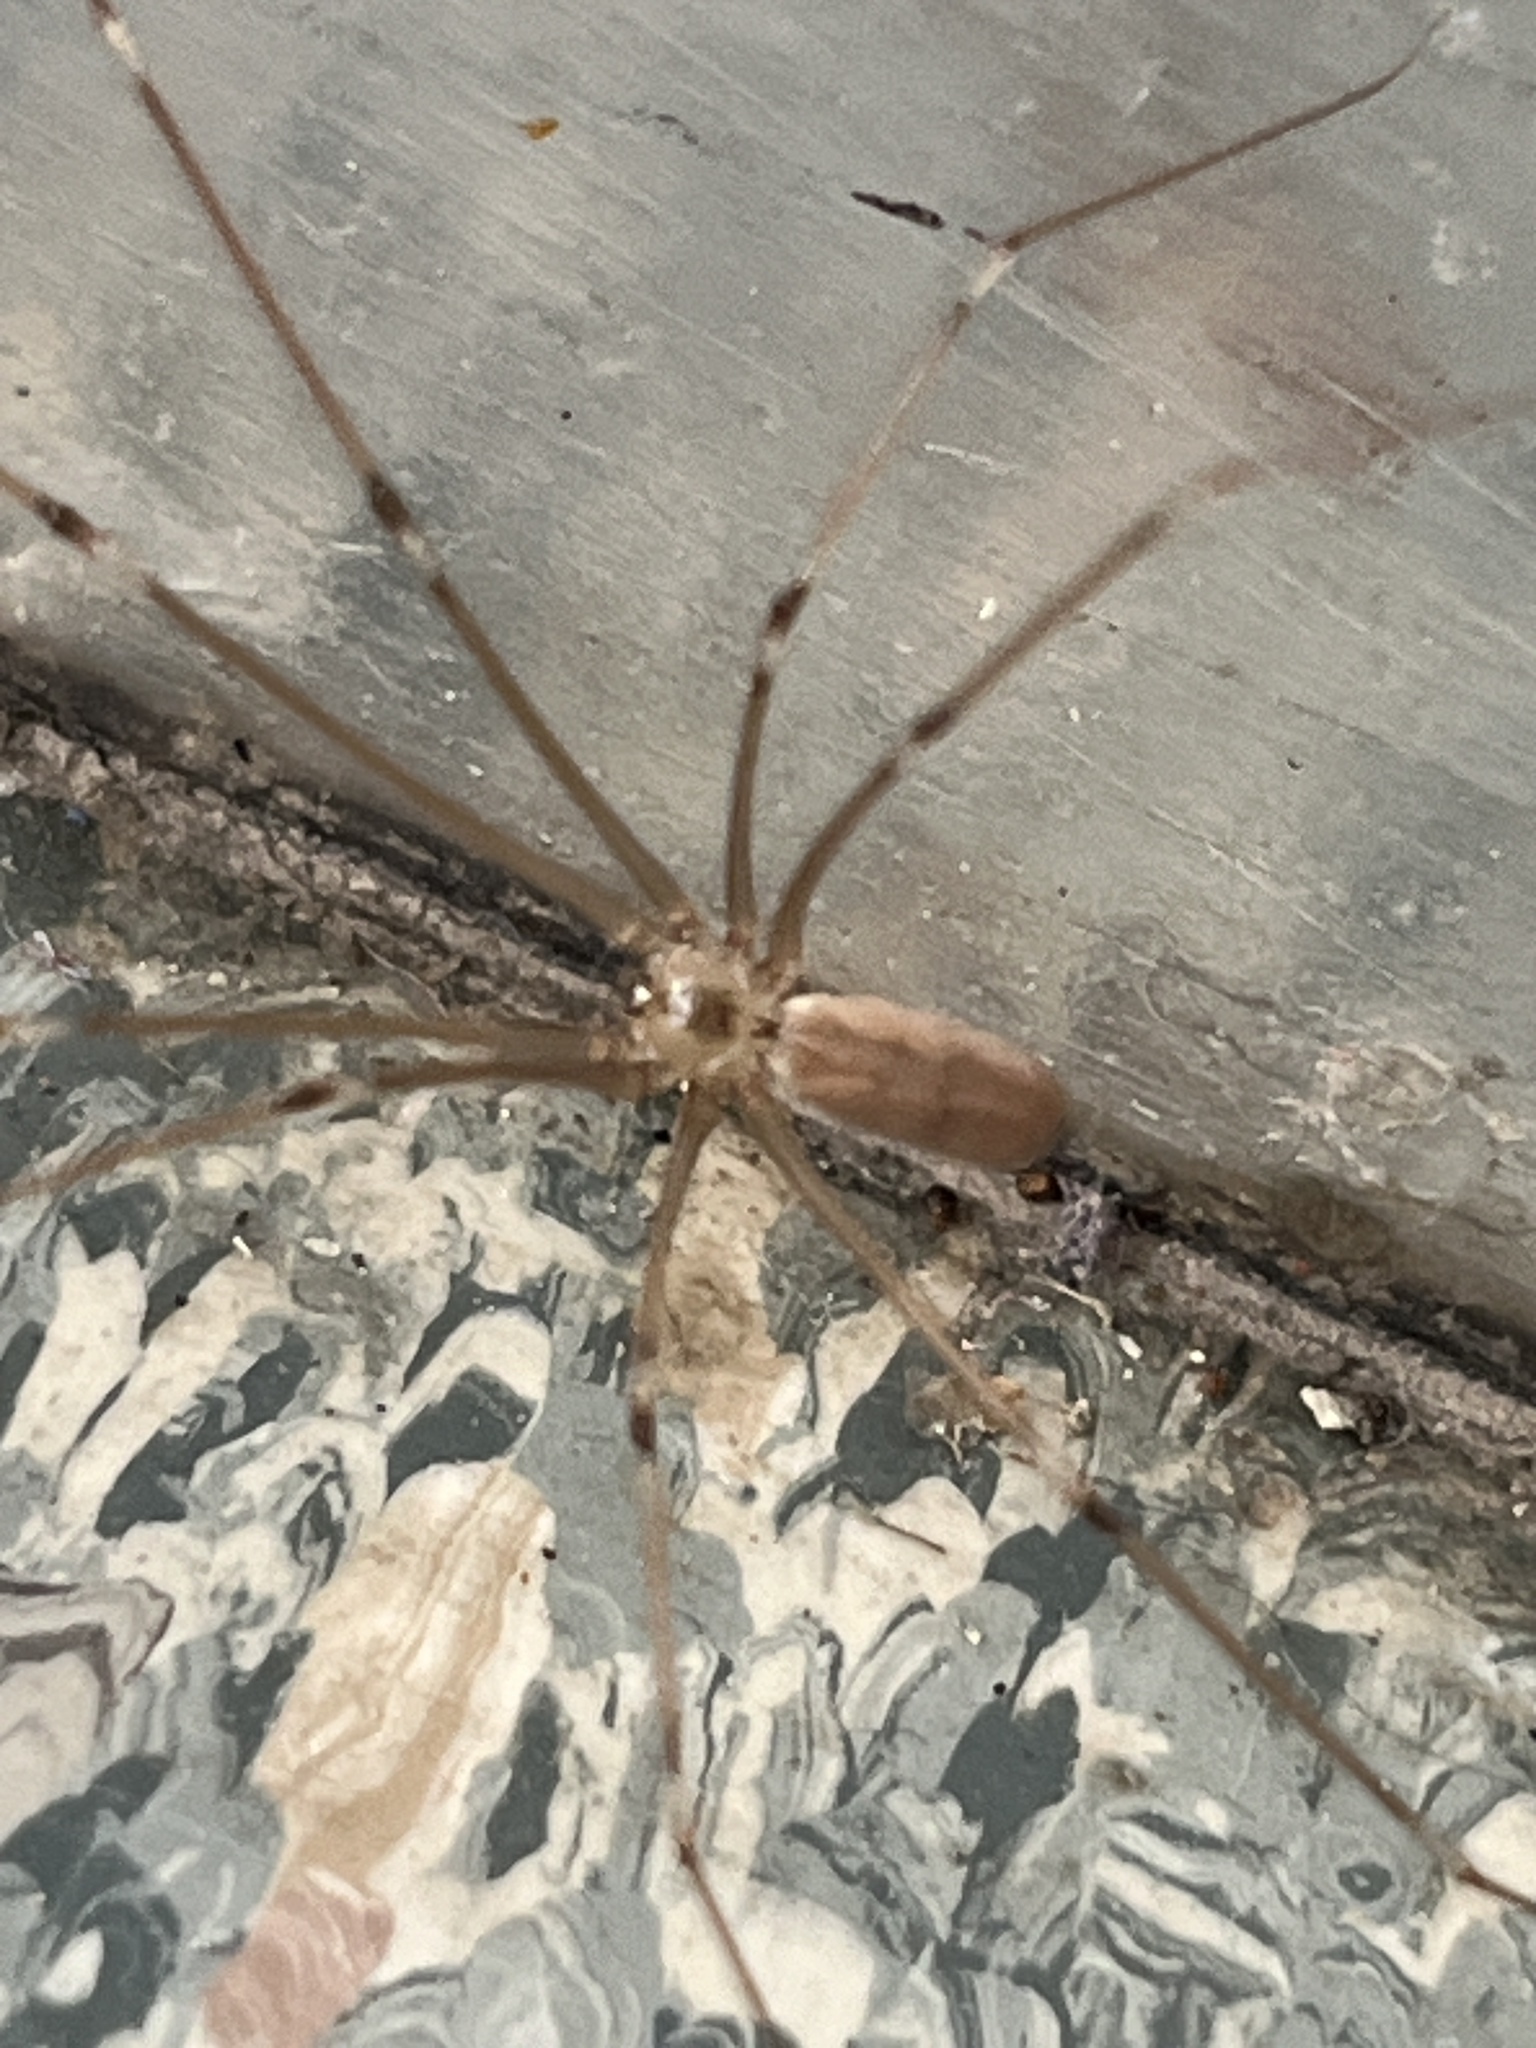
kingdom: Animalia
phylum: Arthropoda
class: Arachnida
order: Araneae
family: Pholcidae
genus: Pholcus
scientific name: Pholcus phalangioides
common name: Longbodied cellar spider
